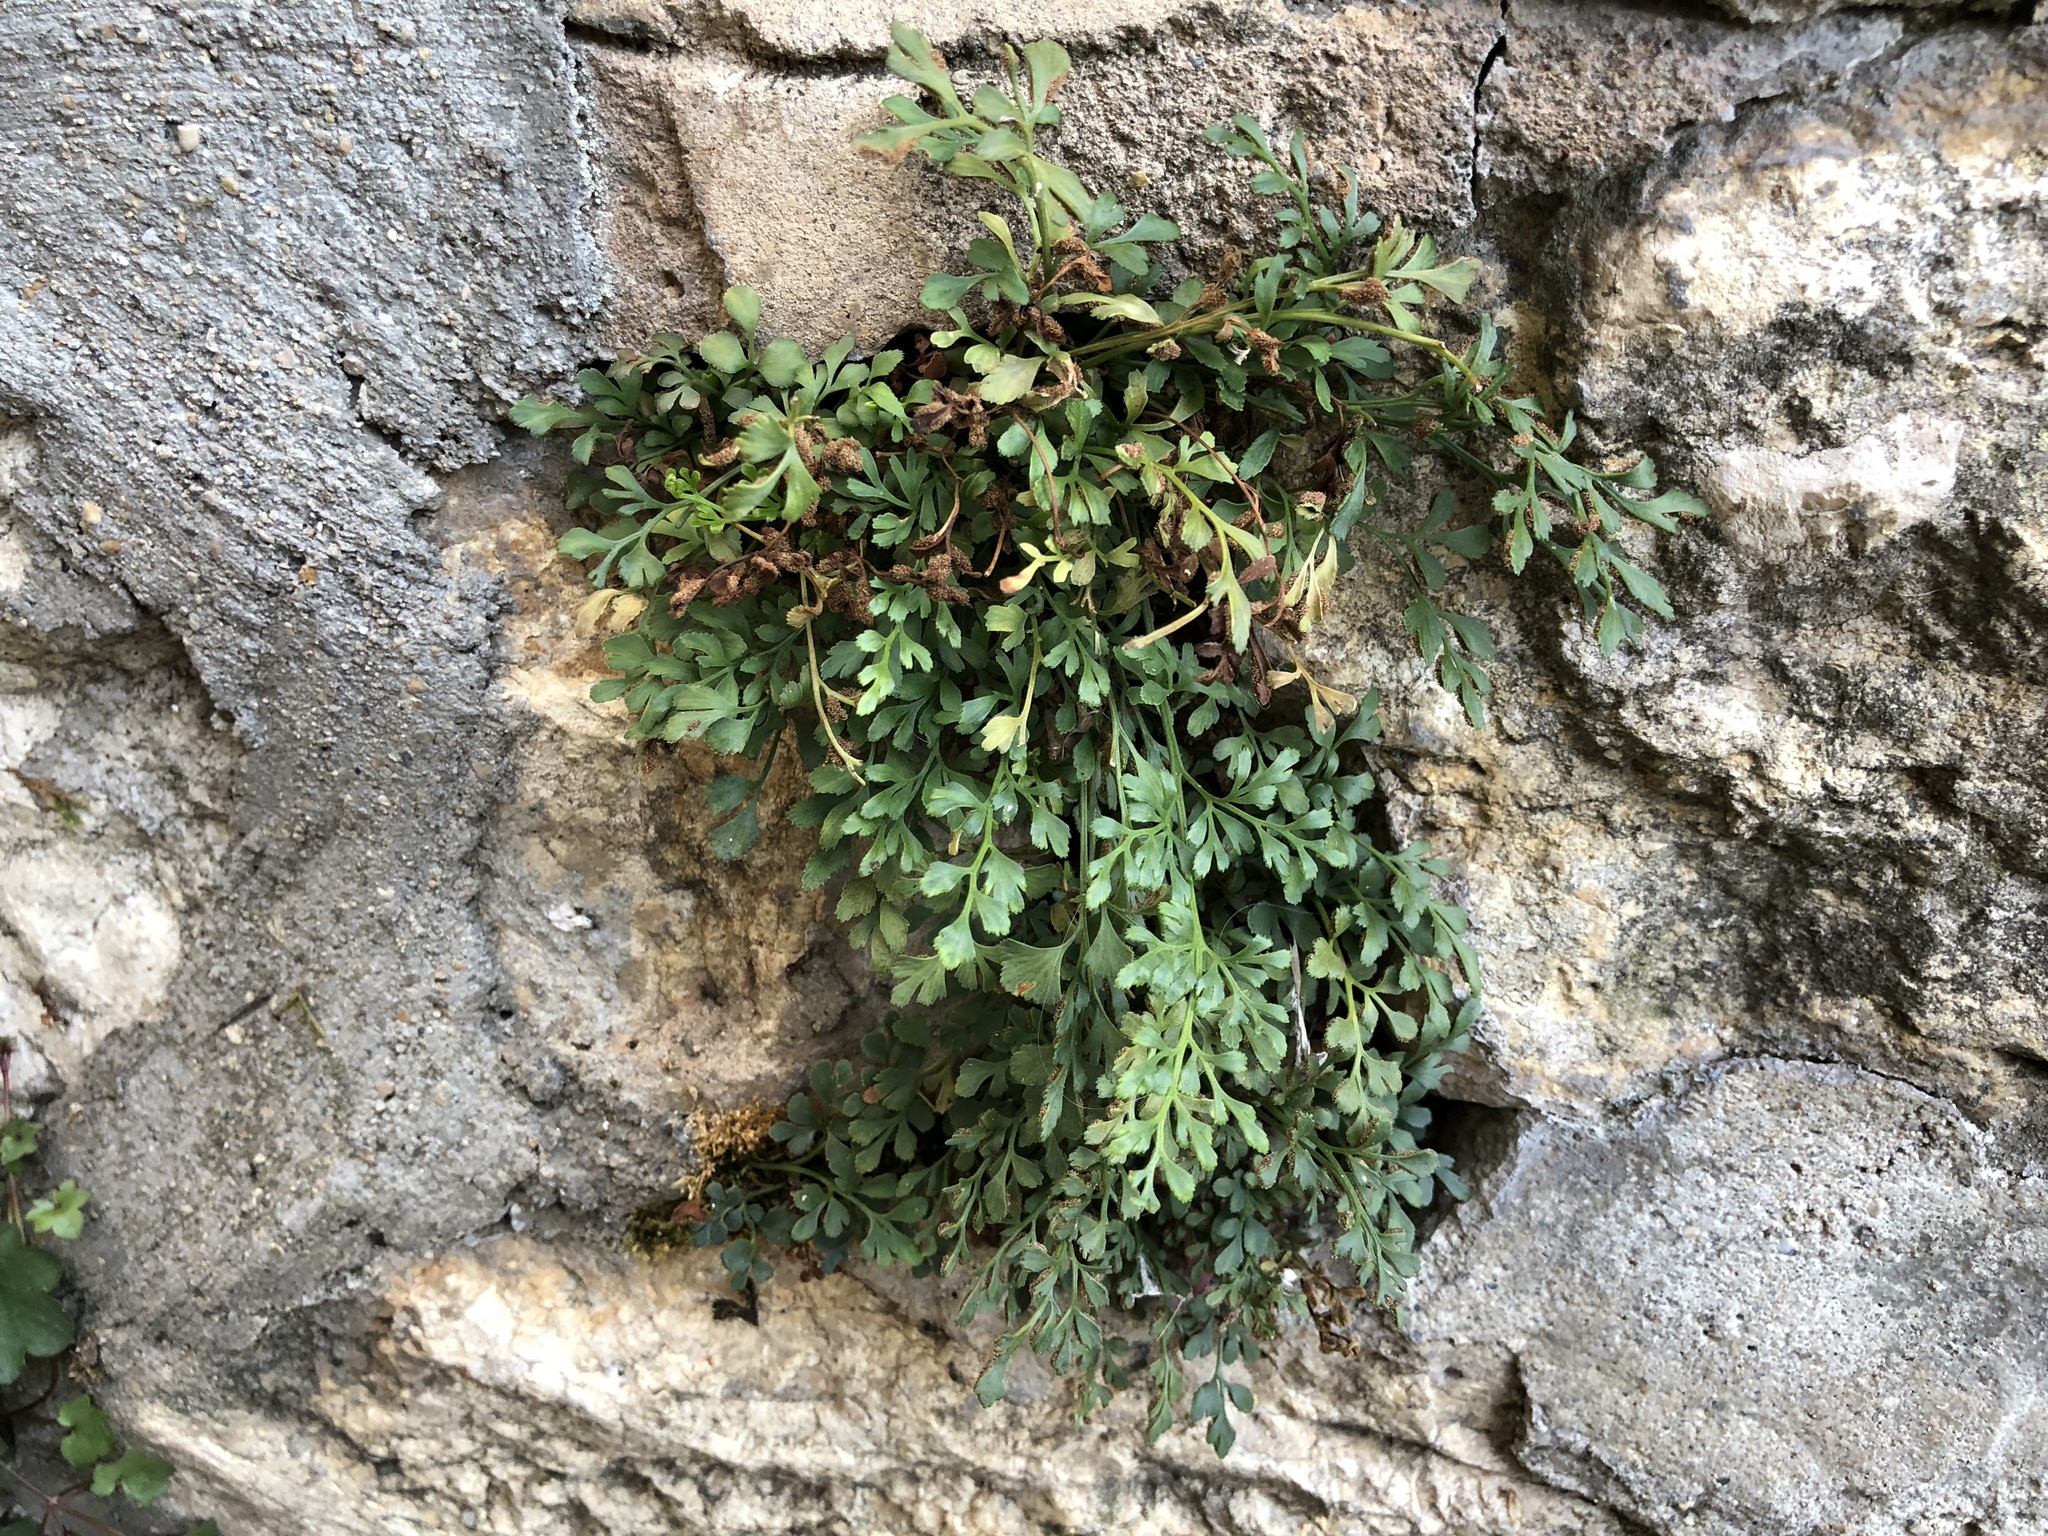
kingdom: Plantae
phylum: Tracheophyta
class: Polypodiopsida
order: Polypodiales
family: Aspleniaceae
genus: Asplenium
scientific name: Asplenium ruta-muraria
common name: Wall-rue
